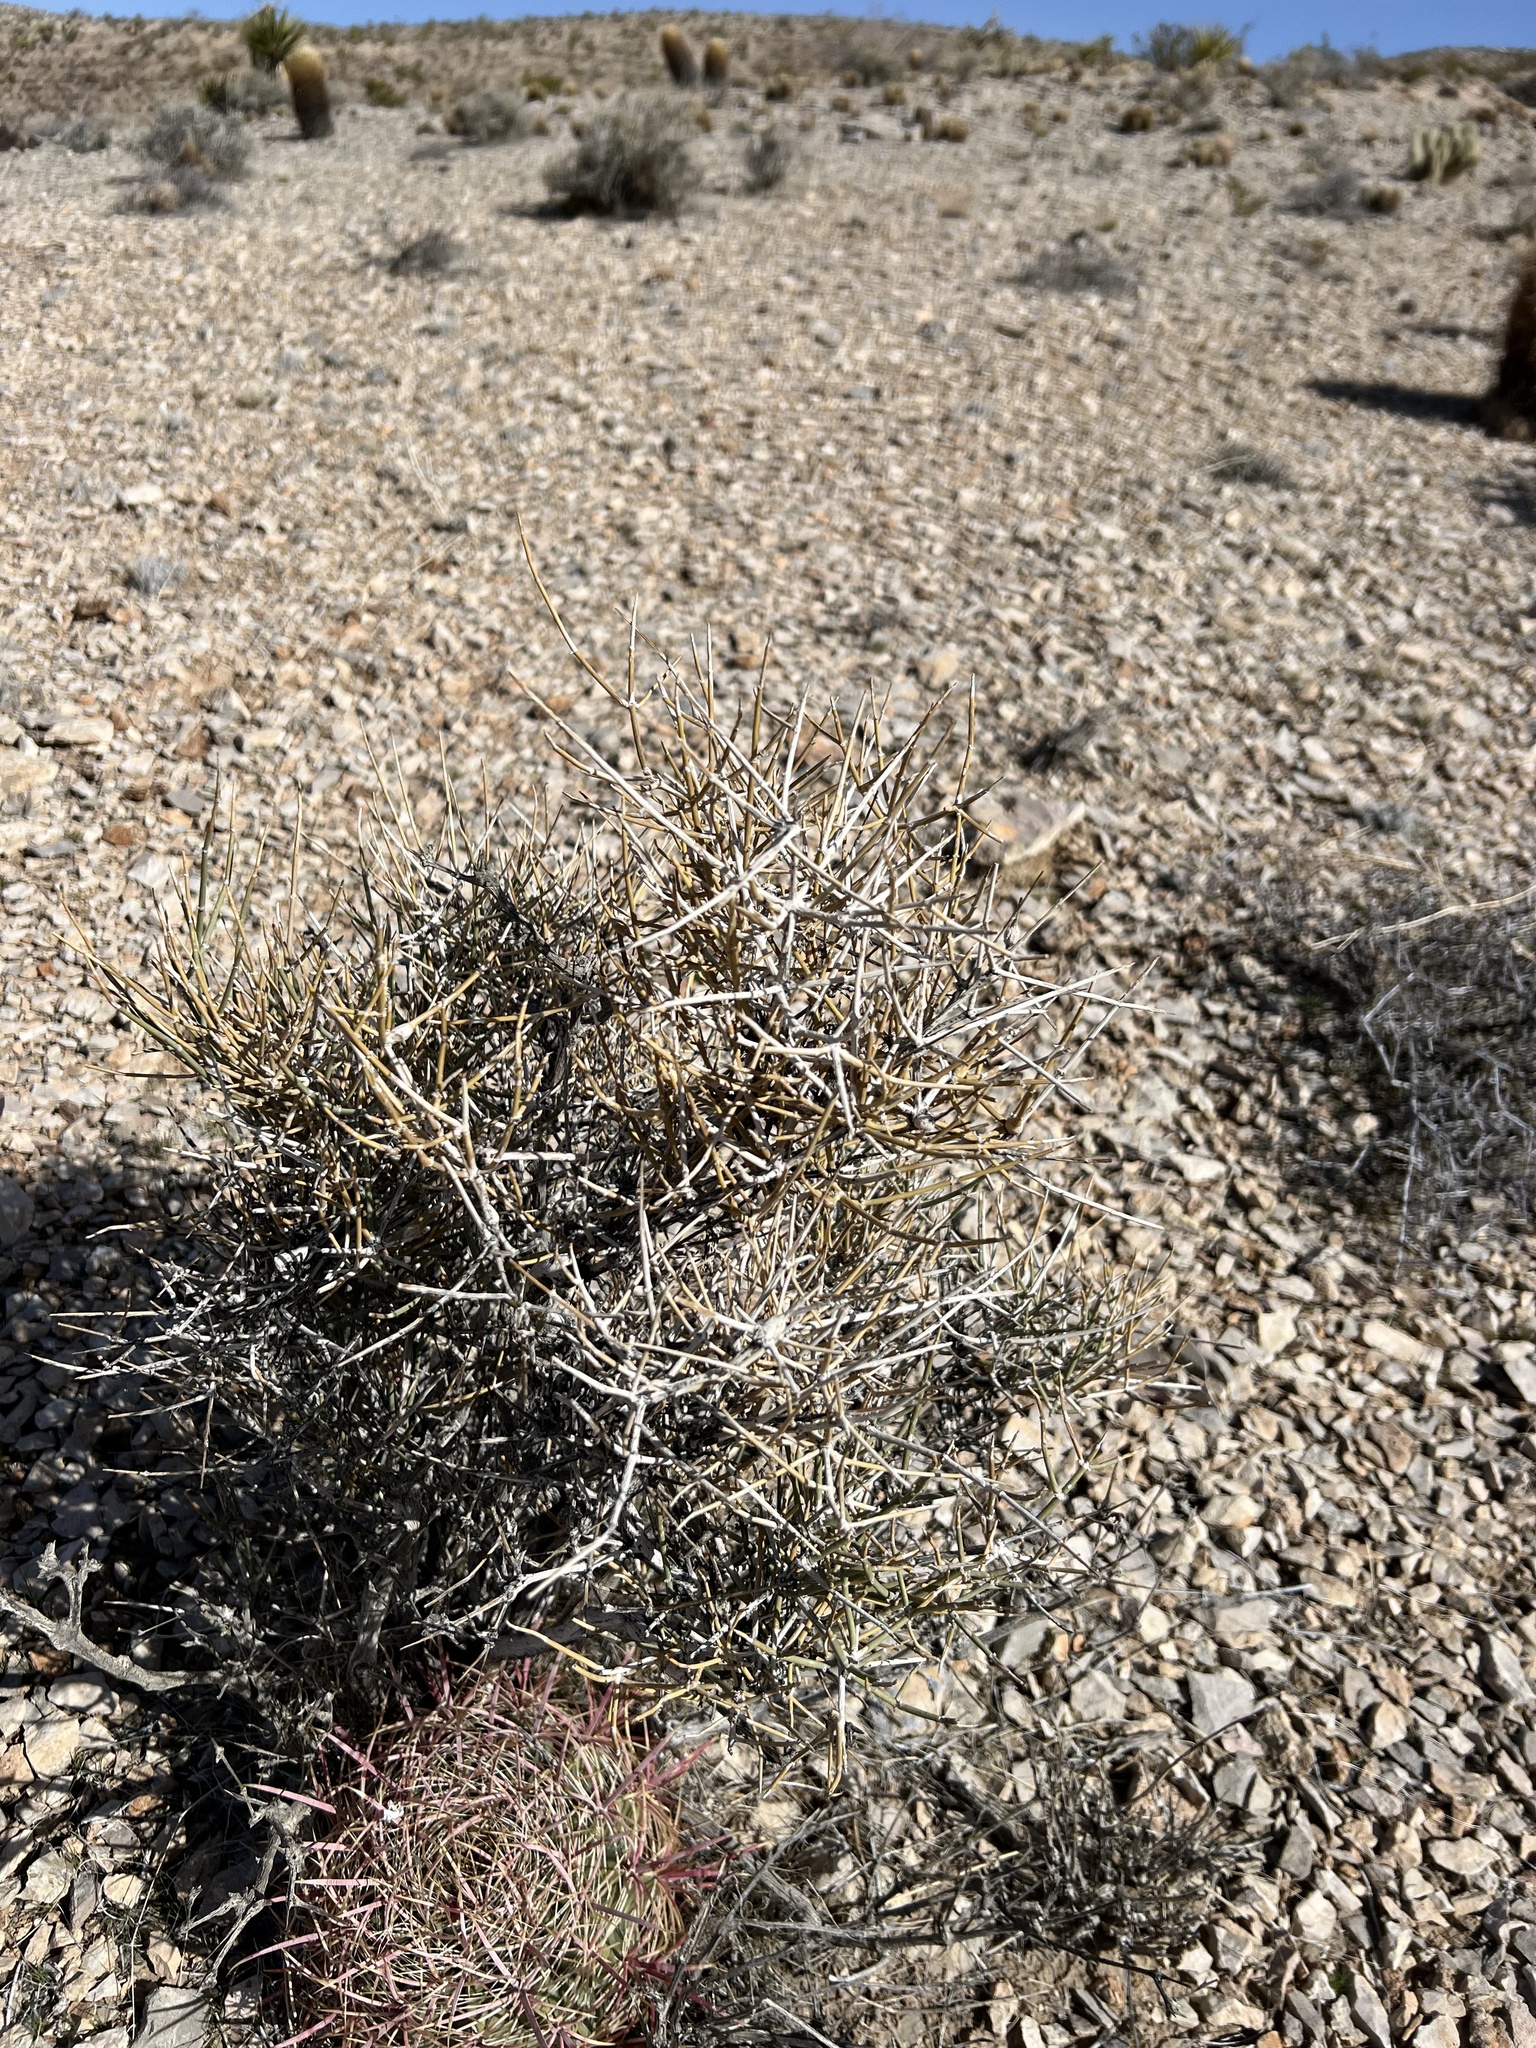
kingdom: Plantae
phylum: Tracheophyta
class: Gnetopsida
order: Ephedrales
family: Ephedraceae
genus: Ephedra
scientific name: Ephedra nevadensis
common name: Gray ephedra
